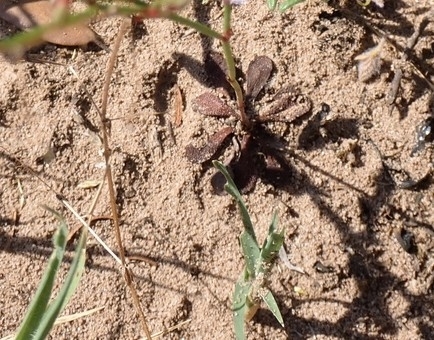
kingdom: Plantae
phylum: Tracheophyta
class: Magnoliopsida
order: Caryophyllales
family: Plumbaginaceae
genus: Limonium
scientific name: Limonium echioides
